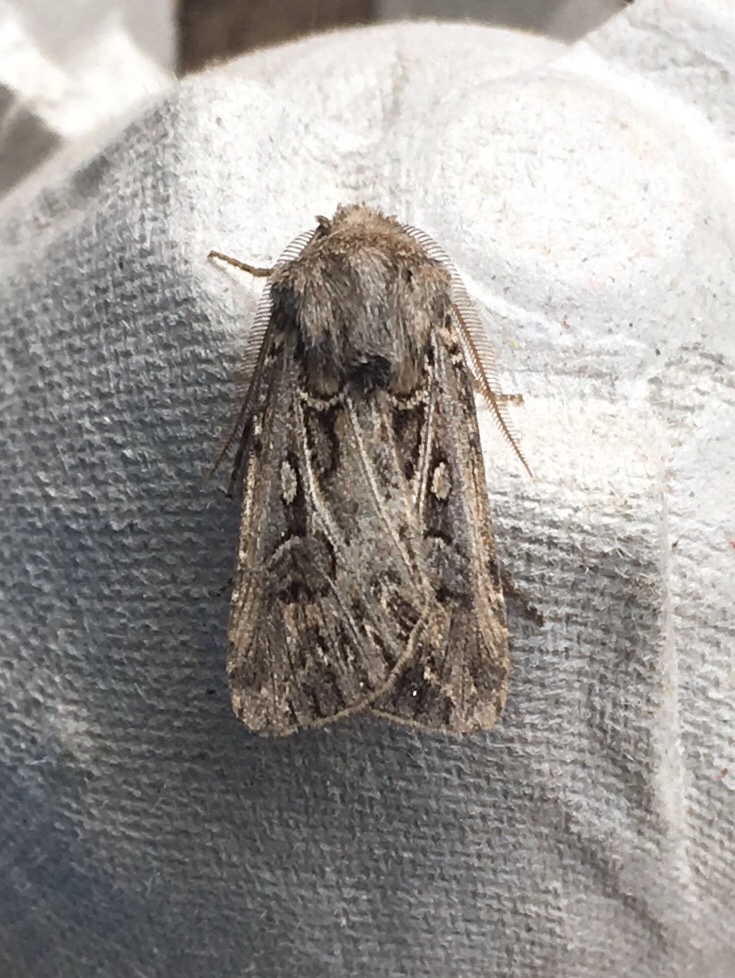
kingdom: Animalia
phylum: Arthropoda
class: Insecta
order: Lepidoptera
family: Noctuidae
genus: Agrotis
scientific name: Agrotis gladiaria
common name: Claybacked cutworm
